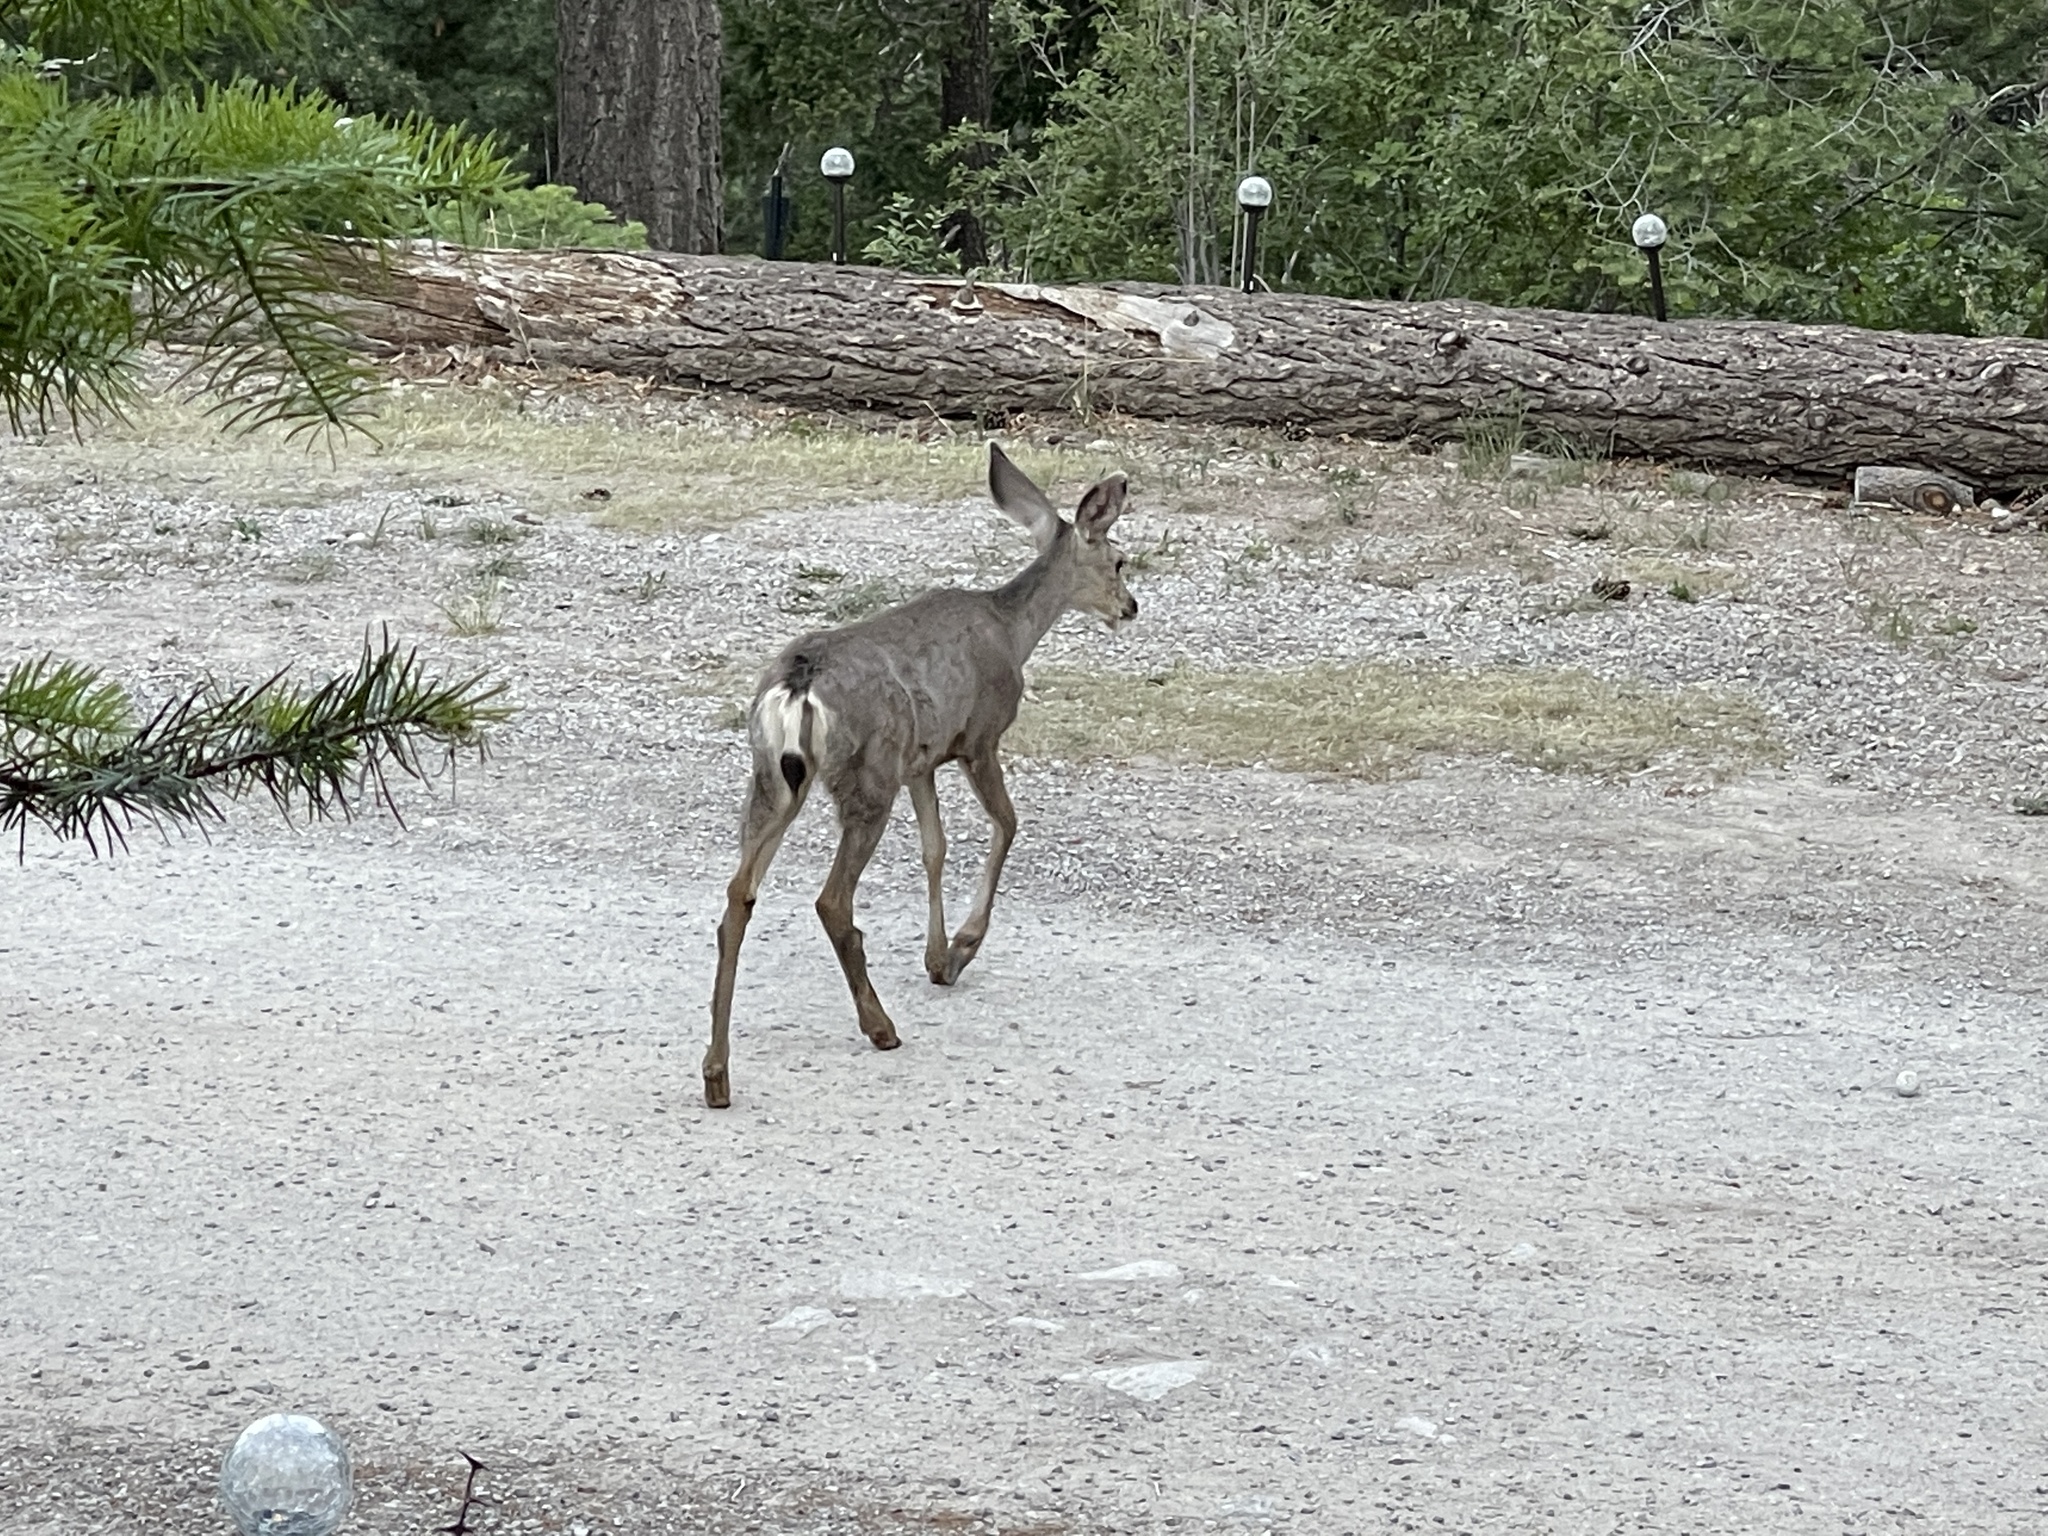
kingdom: Animalia
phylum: Chordata
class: Mammalia
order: Artiodactyla
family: Cervidae
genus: Odocoileus
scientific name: Odocoileus hemionus
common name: Mule deer
